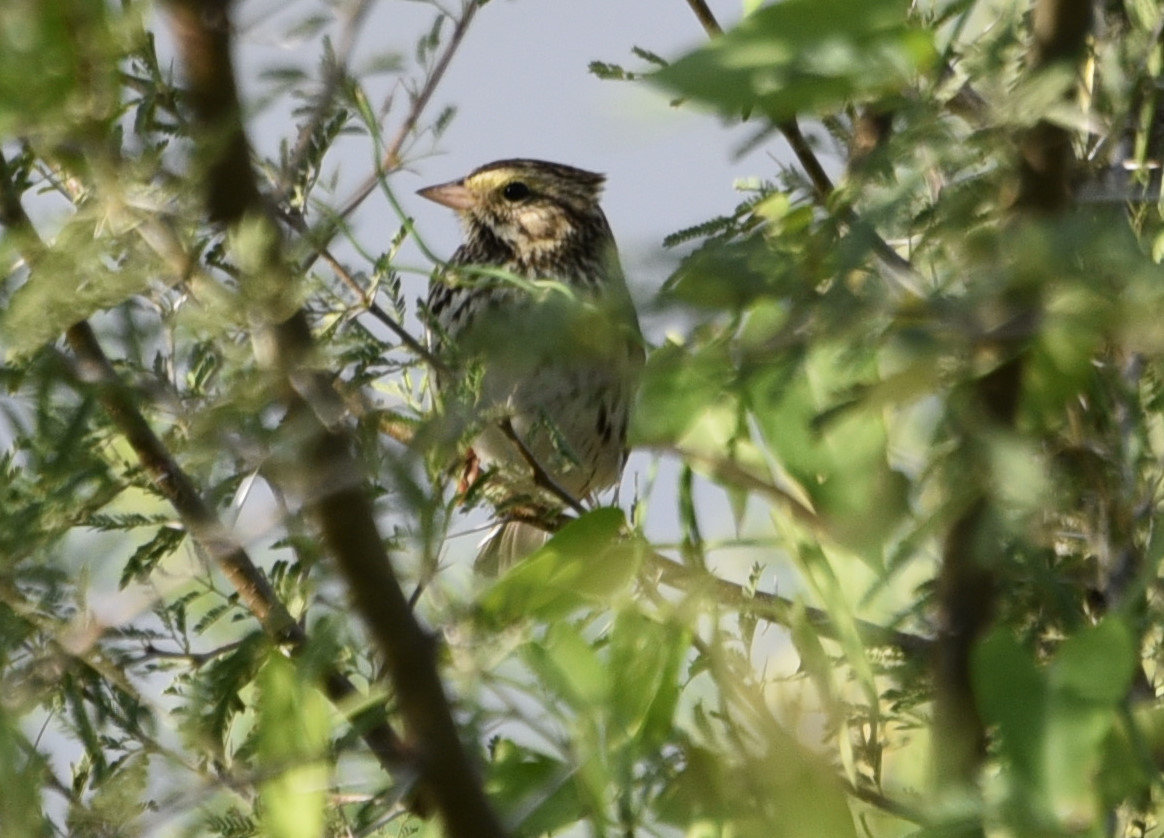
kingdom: Animalia
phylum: Chordata
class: Aves
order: Passeriformes
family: Passerellidae
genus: Passerculus
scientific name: Passerculus sandwichensis
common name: Savannah sparrow
